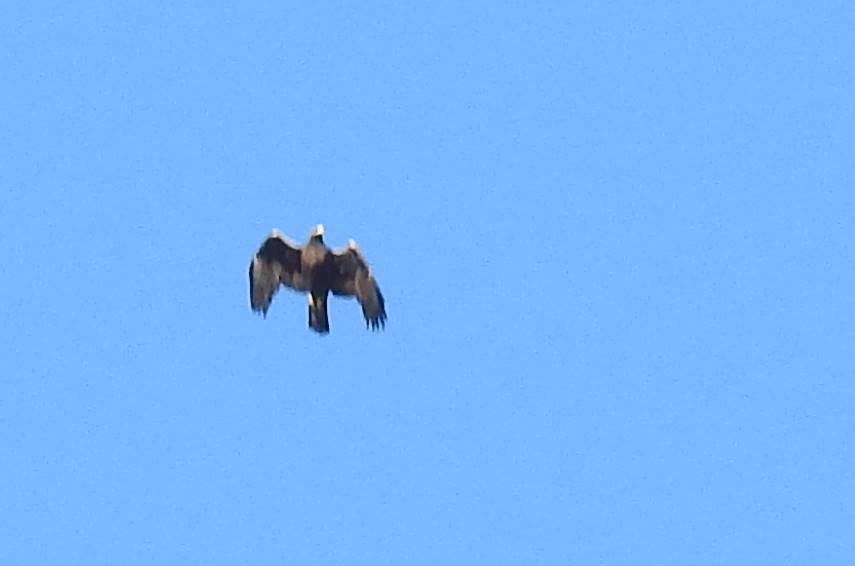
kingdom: Animalia
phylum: Chordata
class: Aves
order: Accipitriformes
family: Accipitridae
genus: Aquila
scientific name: Aquila chrysaetos
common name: Golden eagle
